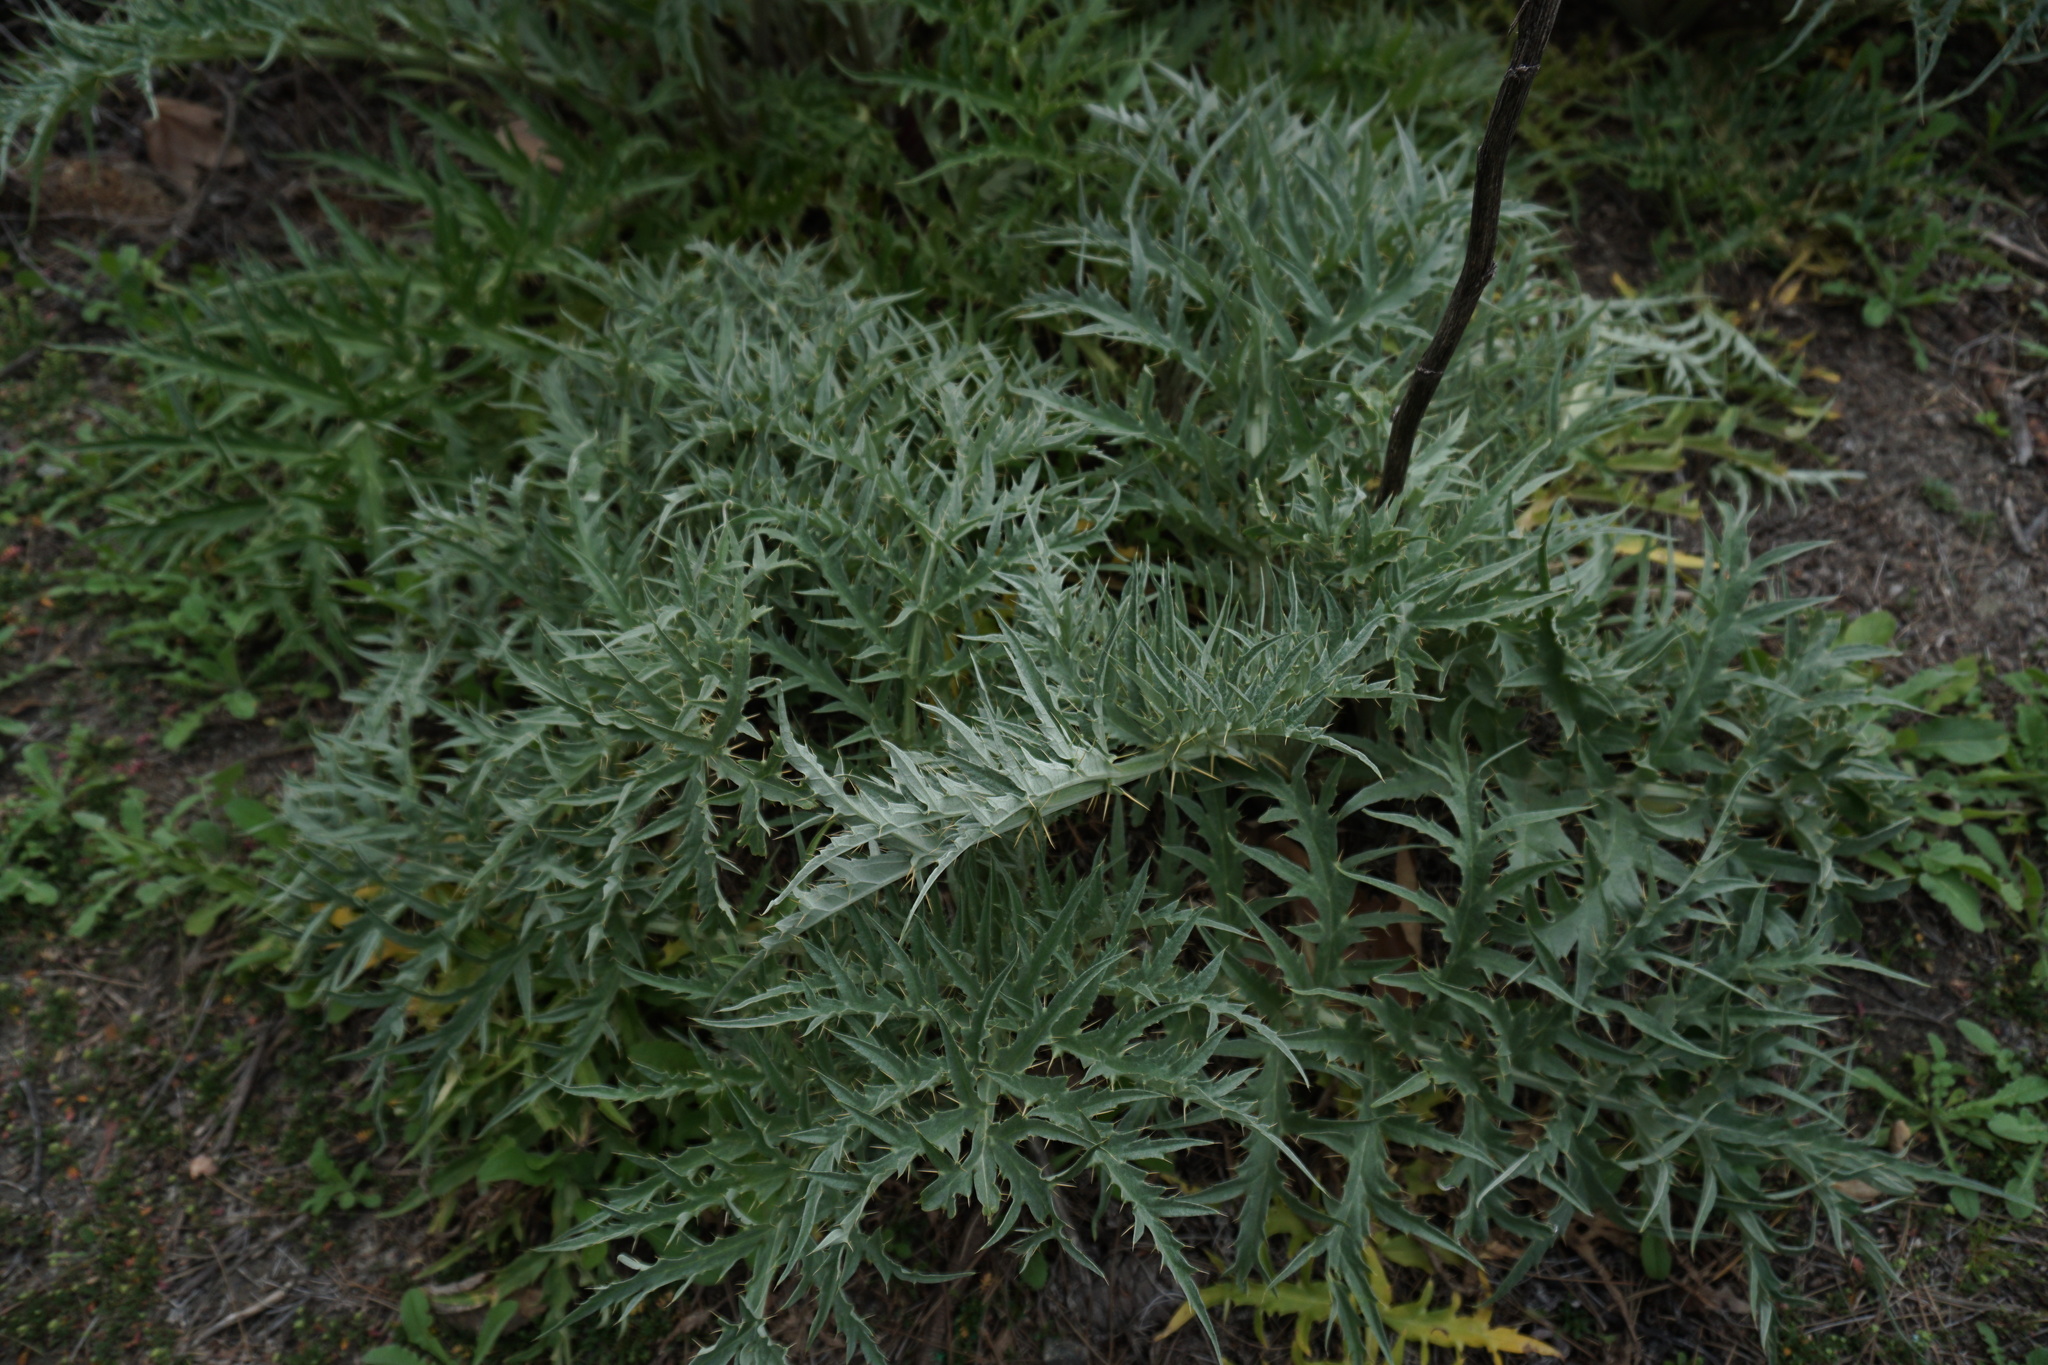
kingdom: Plantae
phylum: Tracheophyta
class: Magnoliopsida
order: Asterales
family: Asteraceae
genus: Cynara
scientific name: Cynara cardunculus
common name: Globe artichoke
